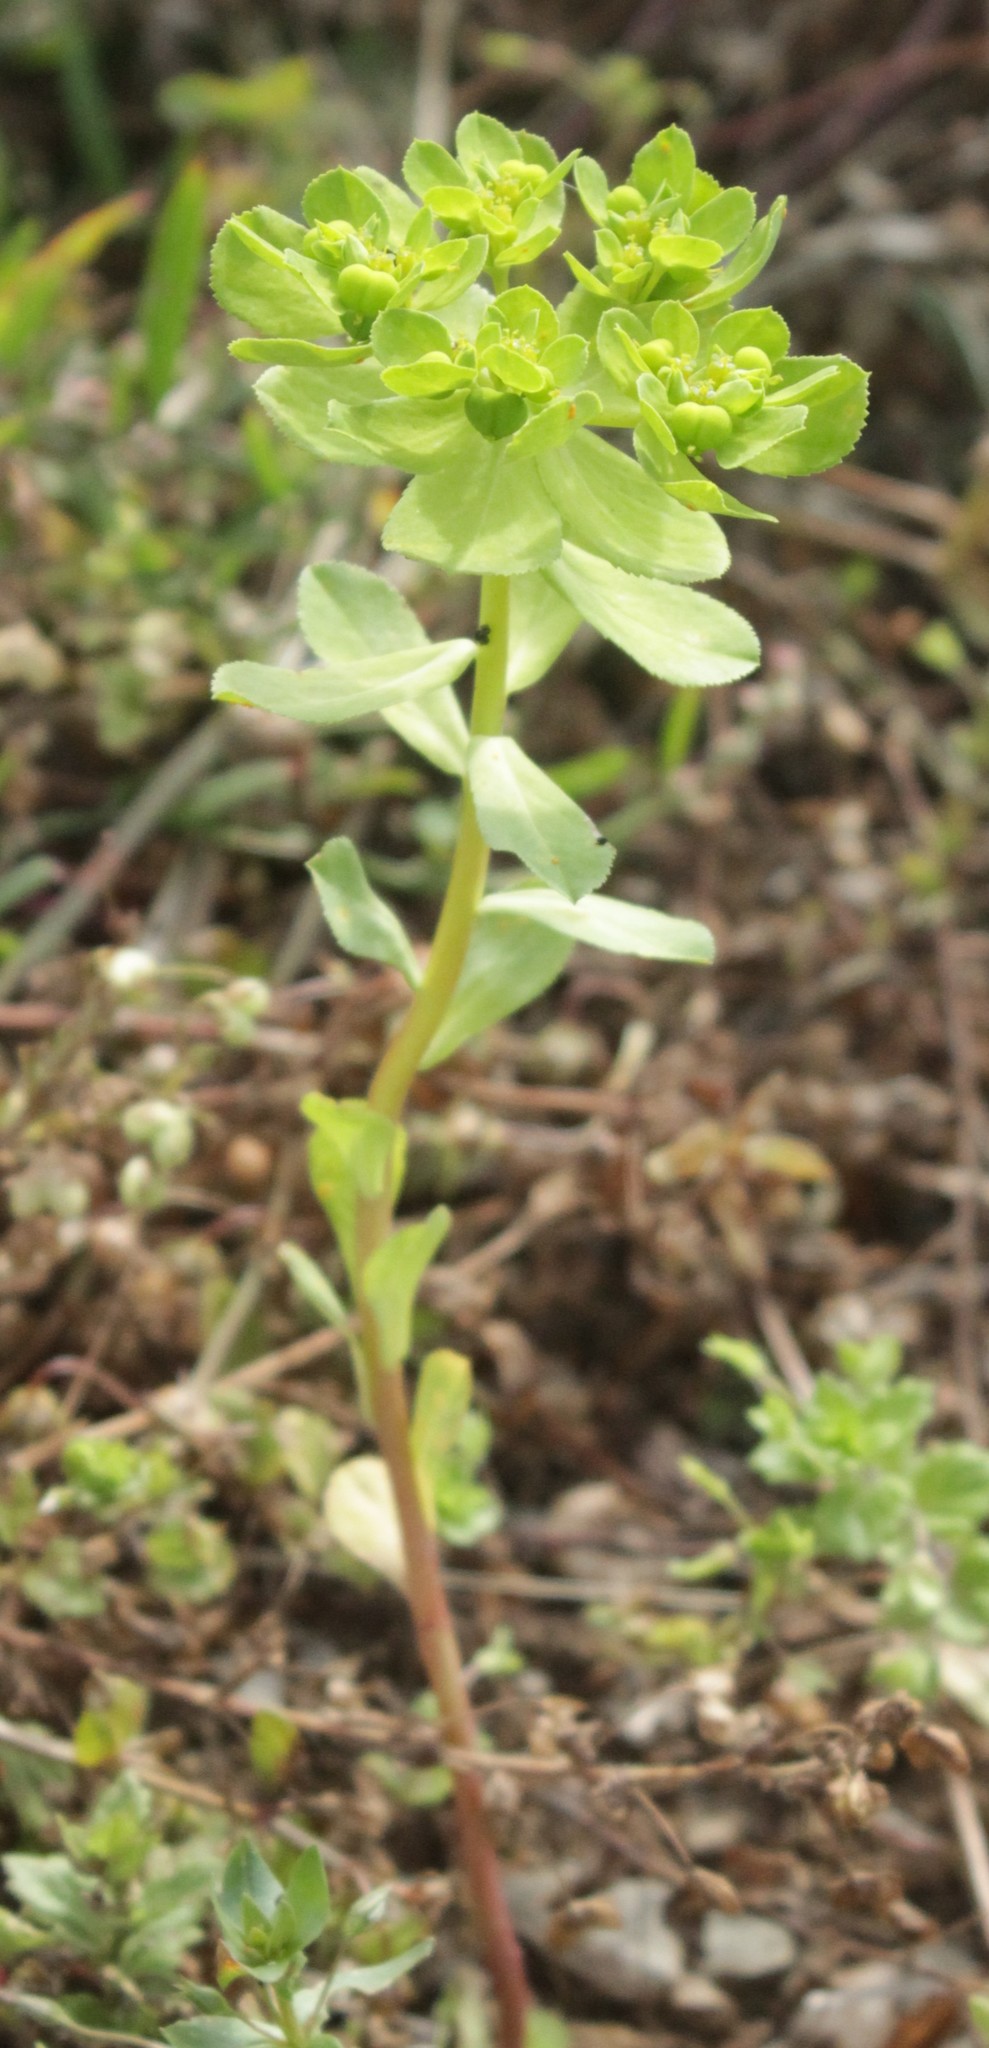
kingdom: Plantae
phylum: Tracheophyta
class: Magnoliopsida
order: Malpighiales
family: Euphorbiaceae
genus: Euphorbia
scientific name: Euphorbia helioscopia
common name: Sun spurge
